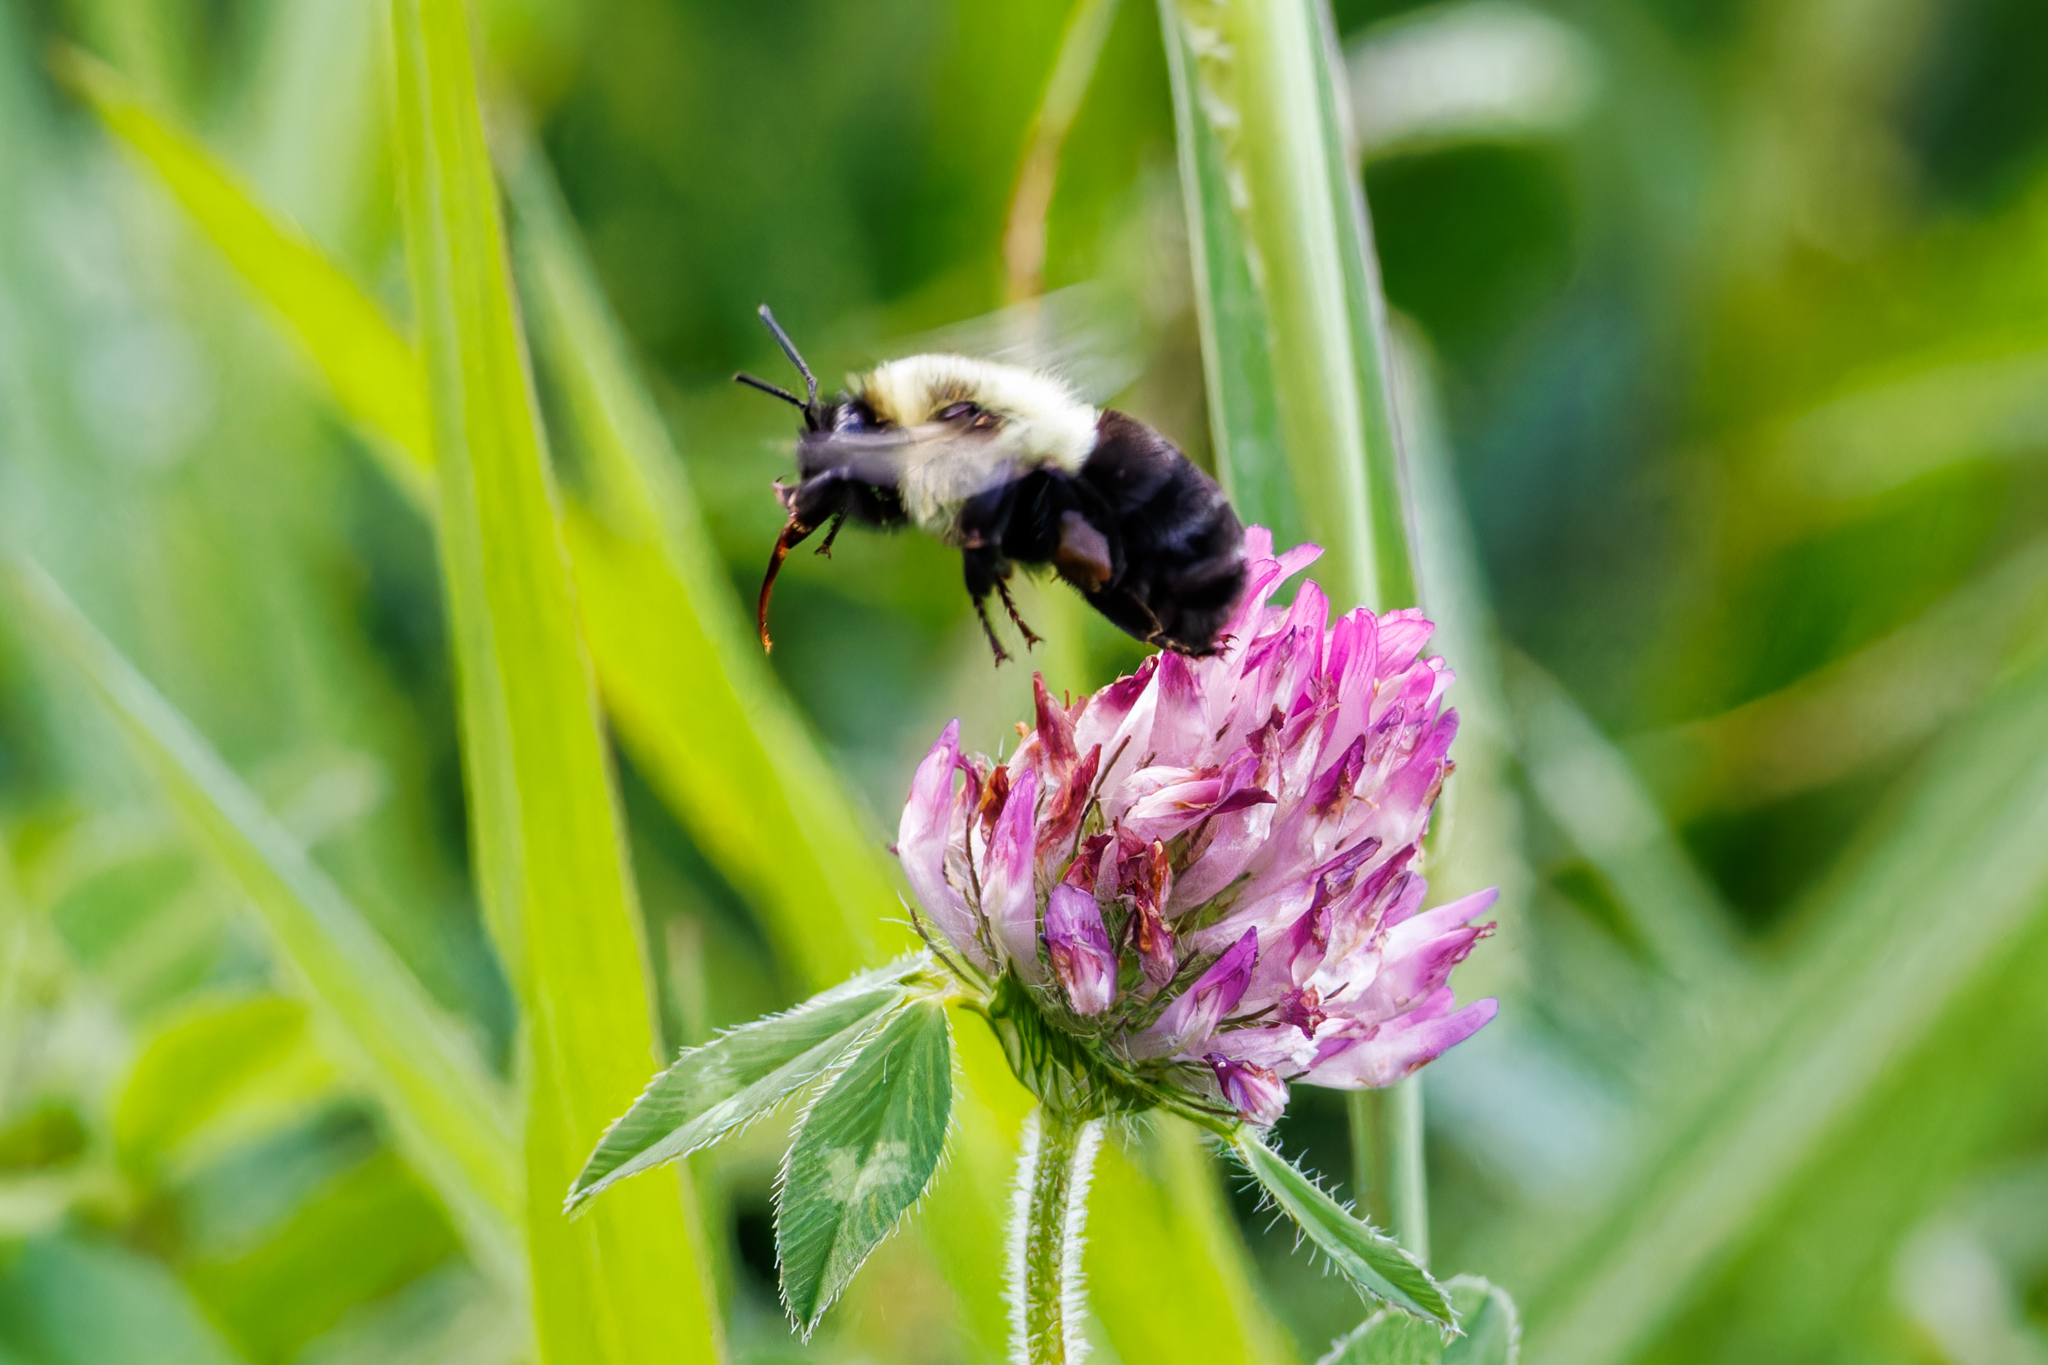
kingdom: Animalia
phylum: Arthropoda
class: Insecta
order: Hymenoptera
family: Apidae
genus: Bombus
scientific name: Bombus impatiens
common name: Common eastern bumble bee
